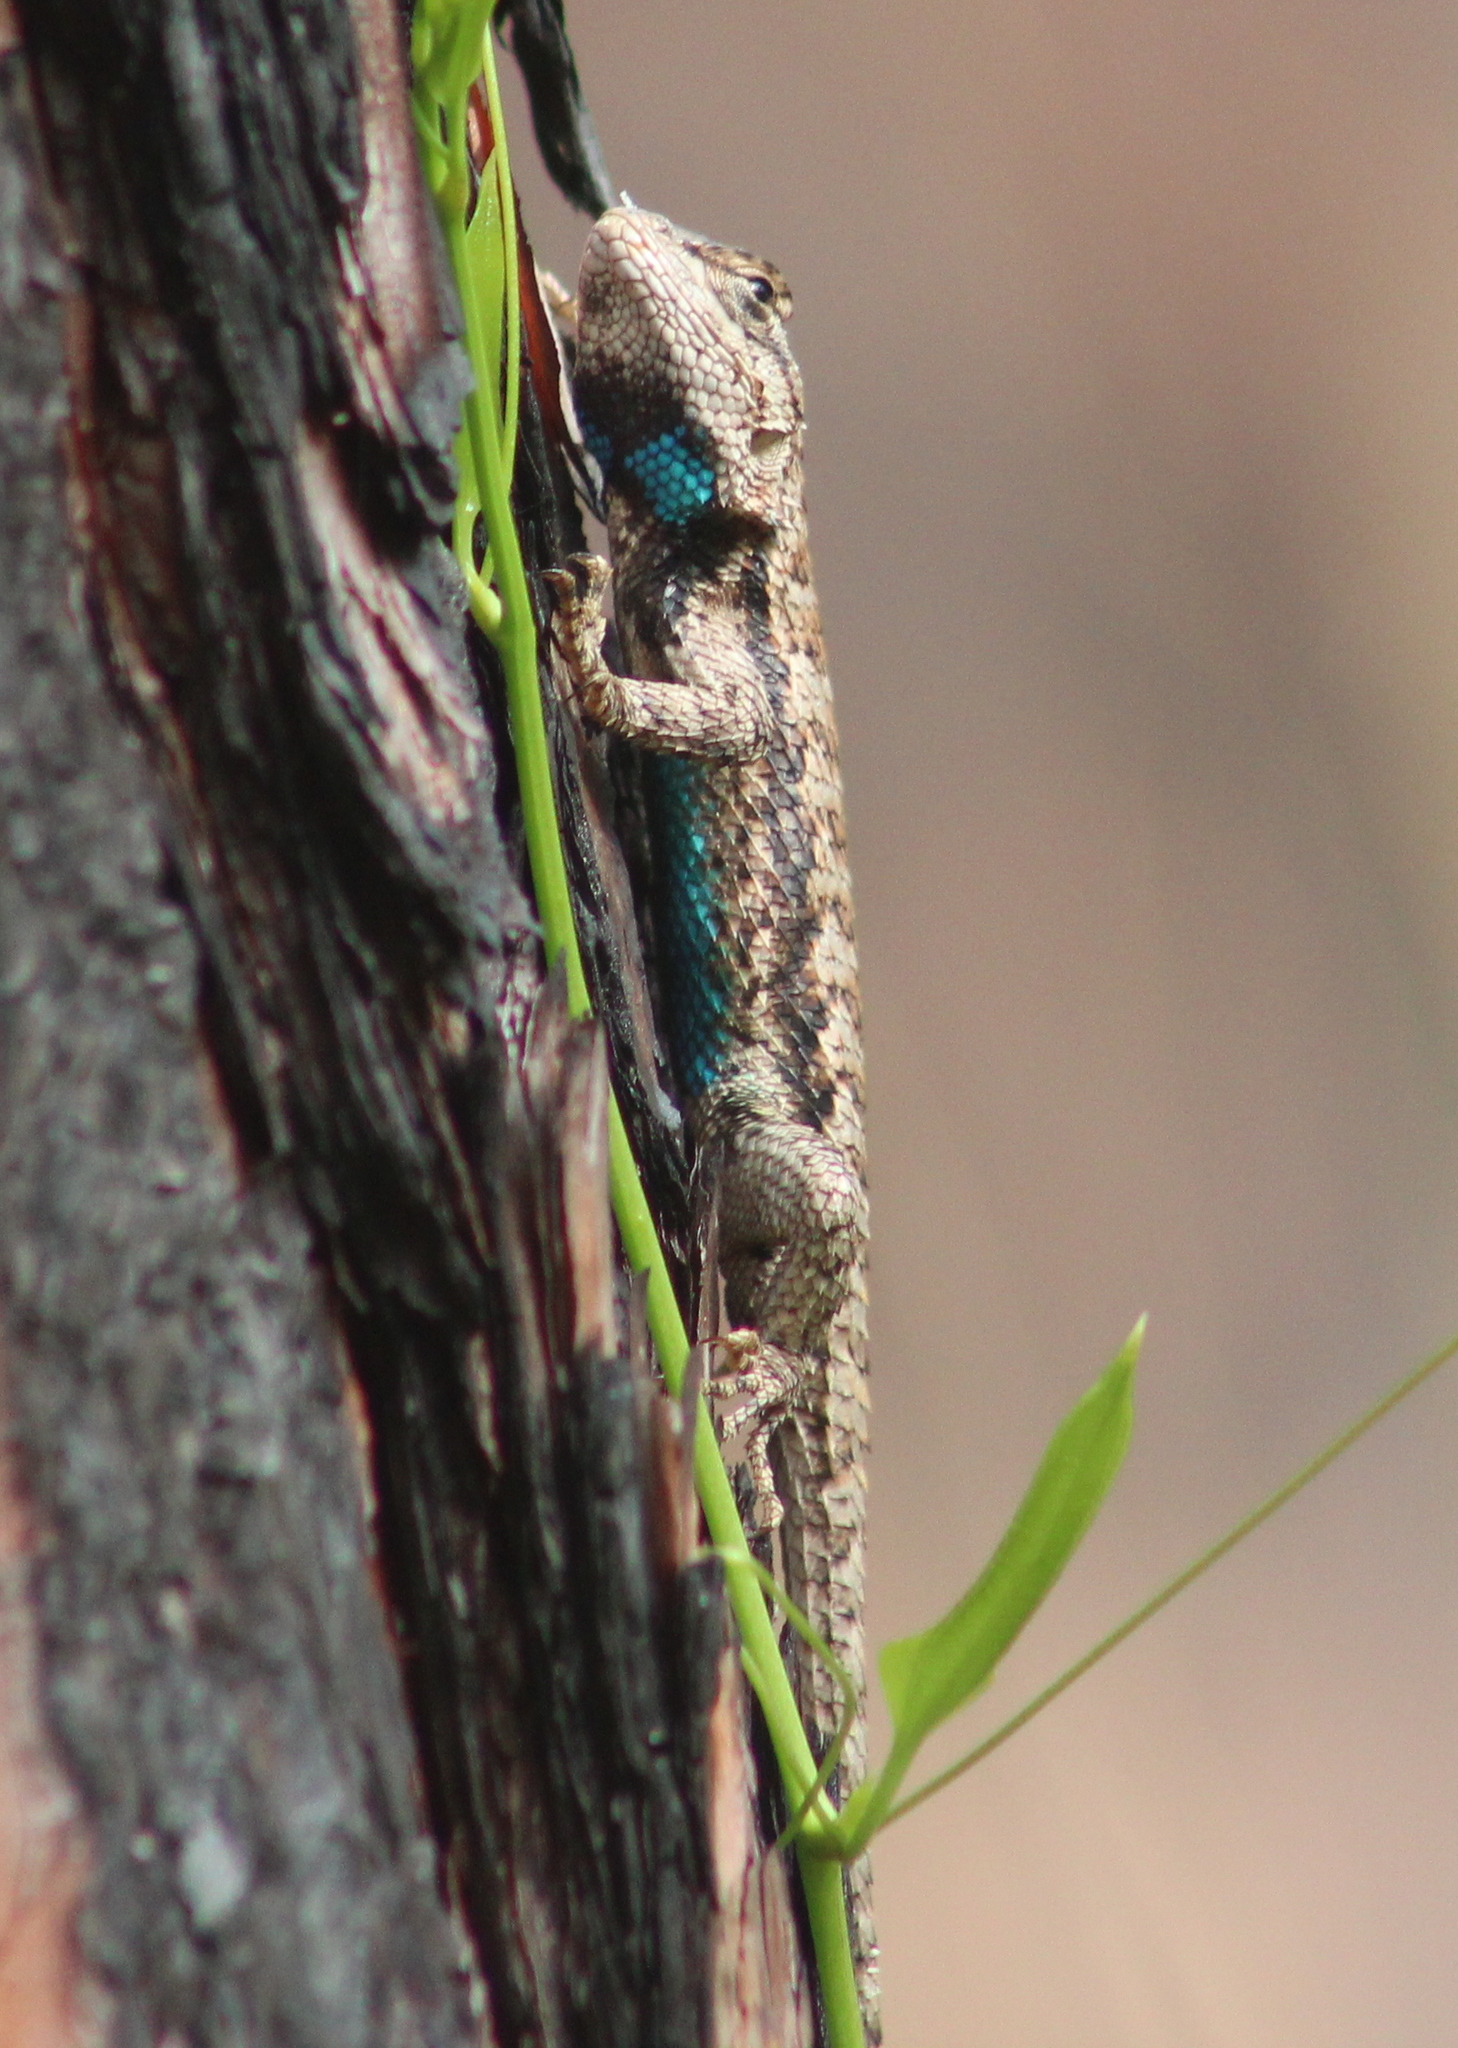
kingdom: Animalia
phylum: Chordata
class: Squamata
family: Phrynosomatidae
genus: Sceloporus
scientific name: Sceloporus undulatus
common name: Eastern fence lizard
